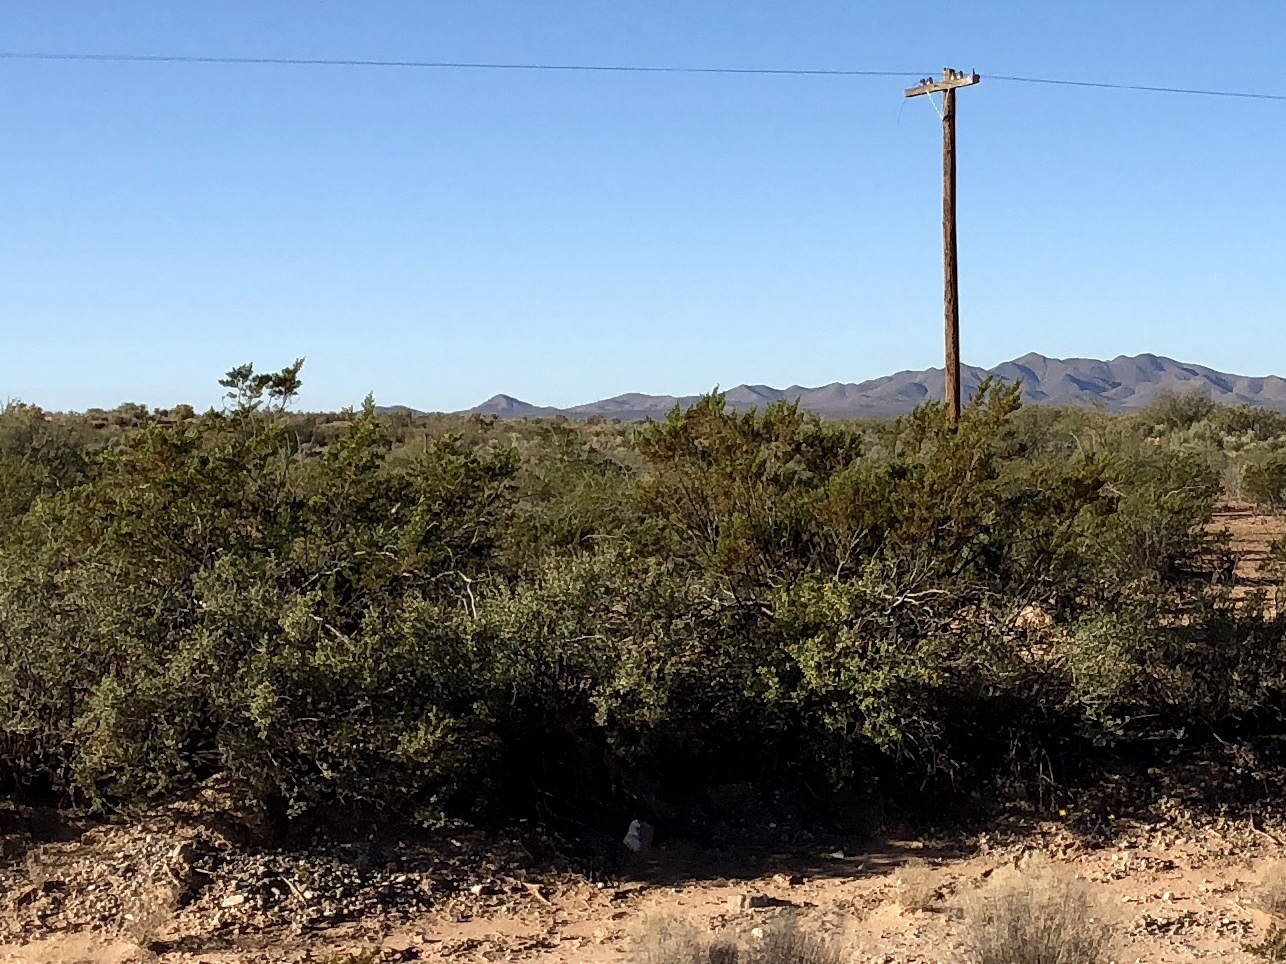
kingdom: Plantae
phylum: Tracheophyta
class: Magnoliopsida
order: Zygophyllales
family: Zygophyllaceae
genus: Larrea
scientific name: Larrea tridentata
